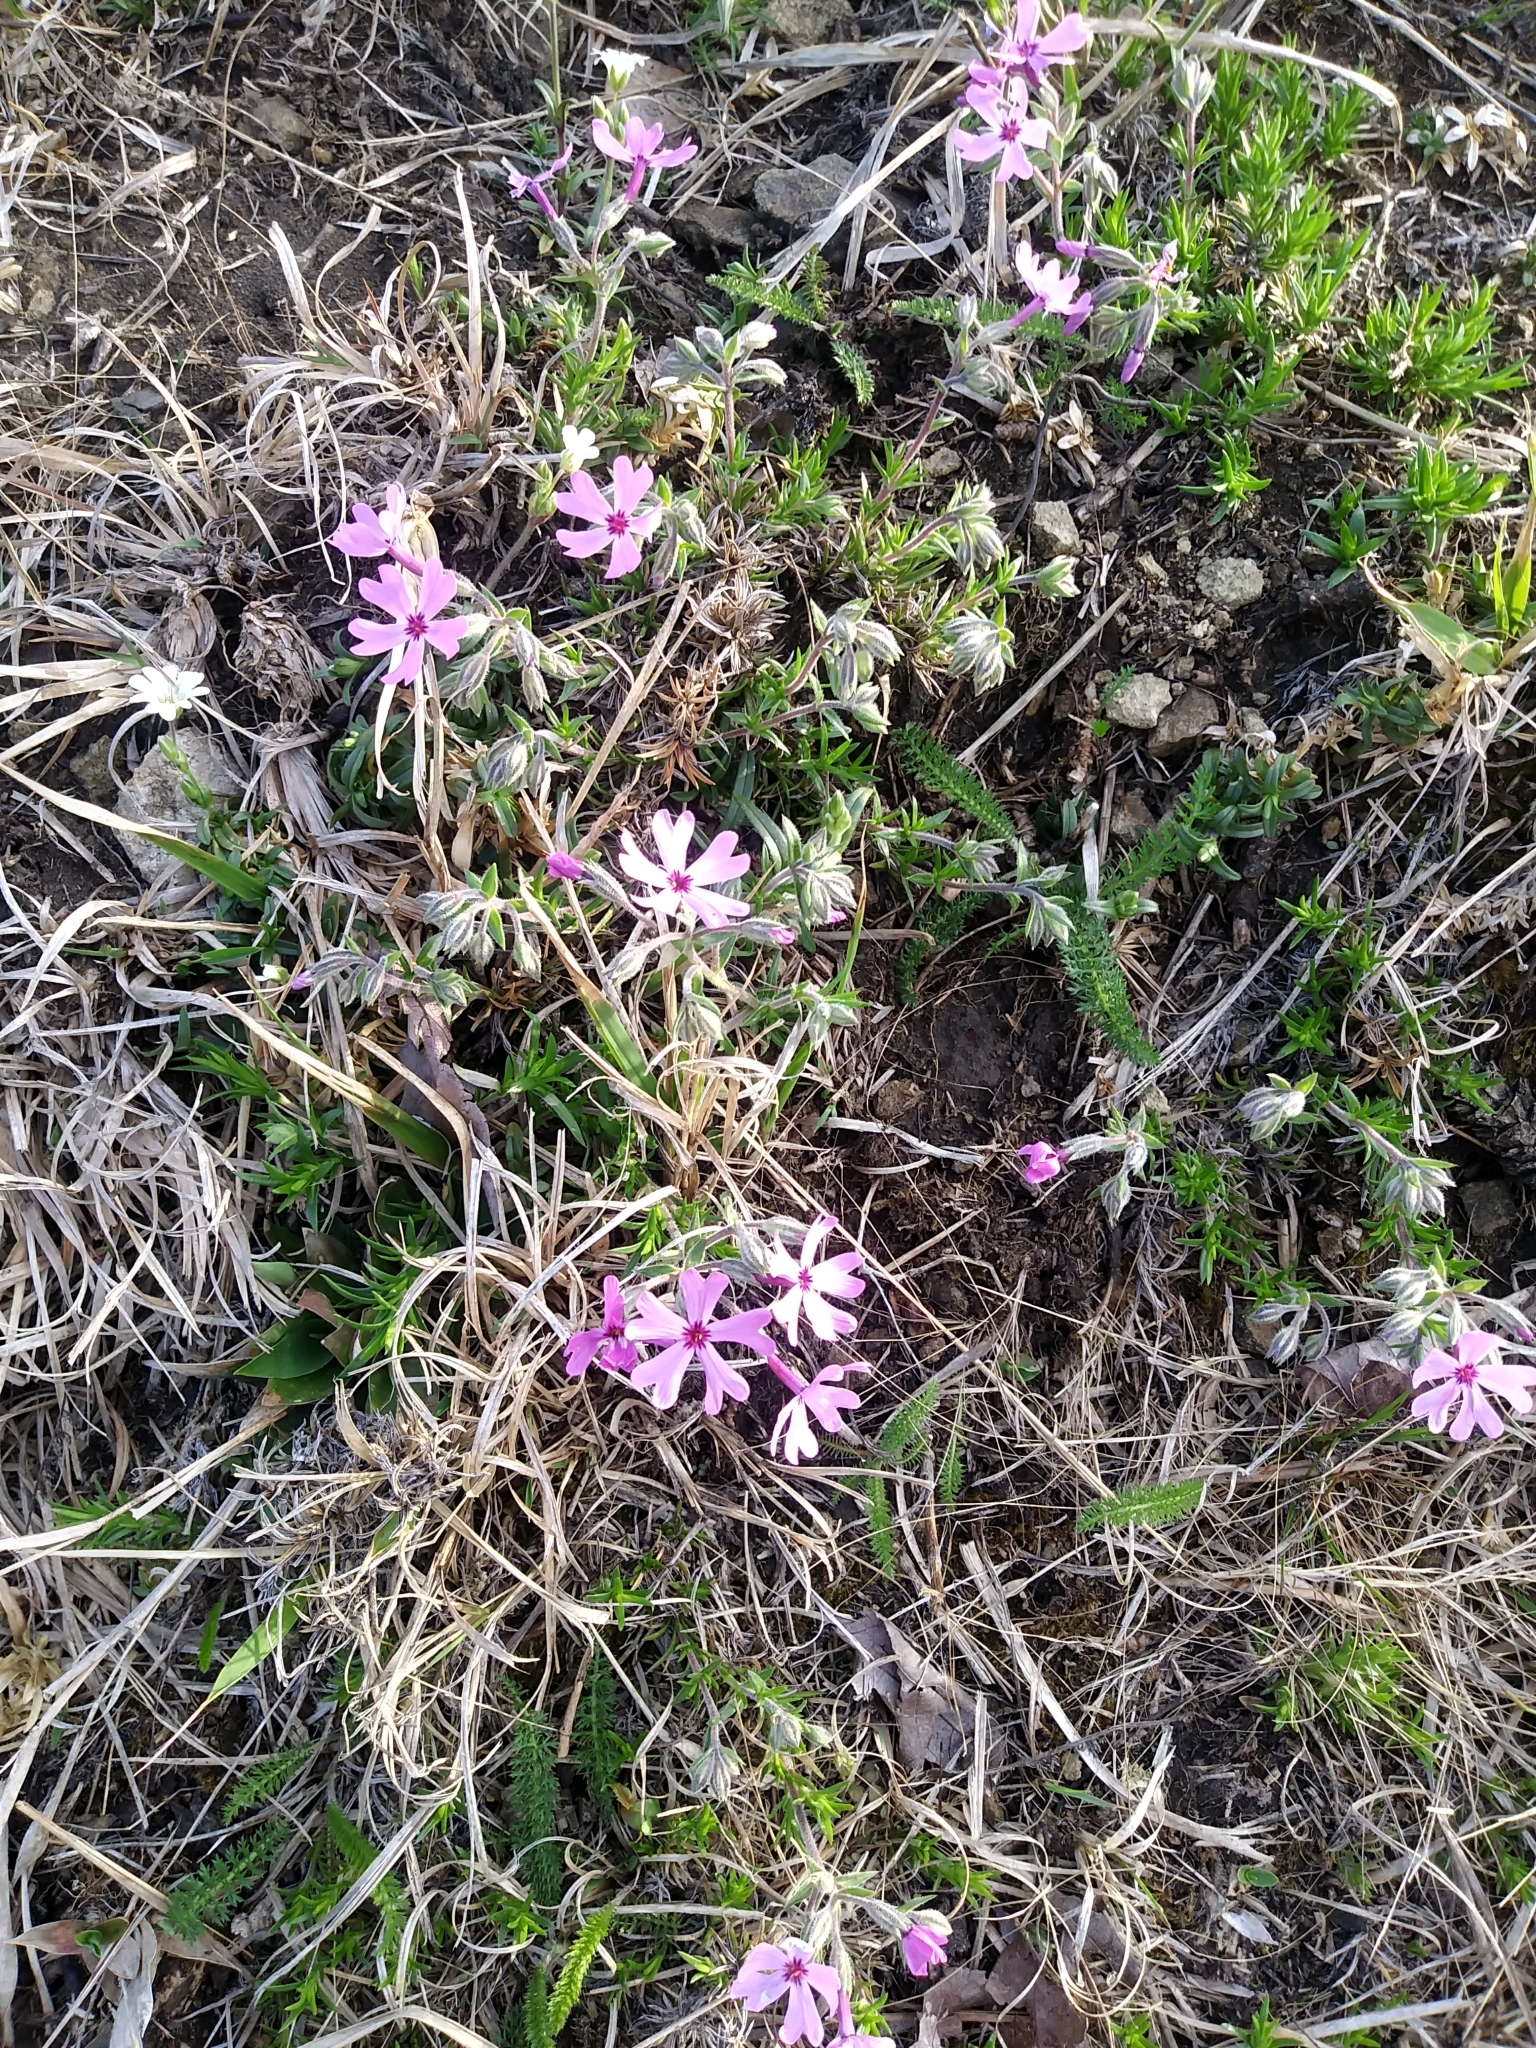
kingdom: Plantae
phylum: Tracheophyta
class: Magnoliopsida
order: Ericales
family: Polemoniaceae
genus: Phlox
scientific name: Phlox subulata
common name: Moss phlox
